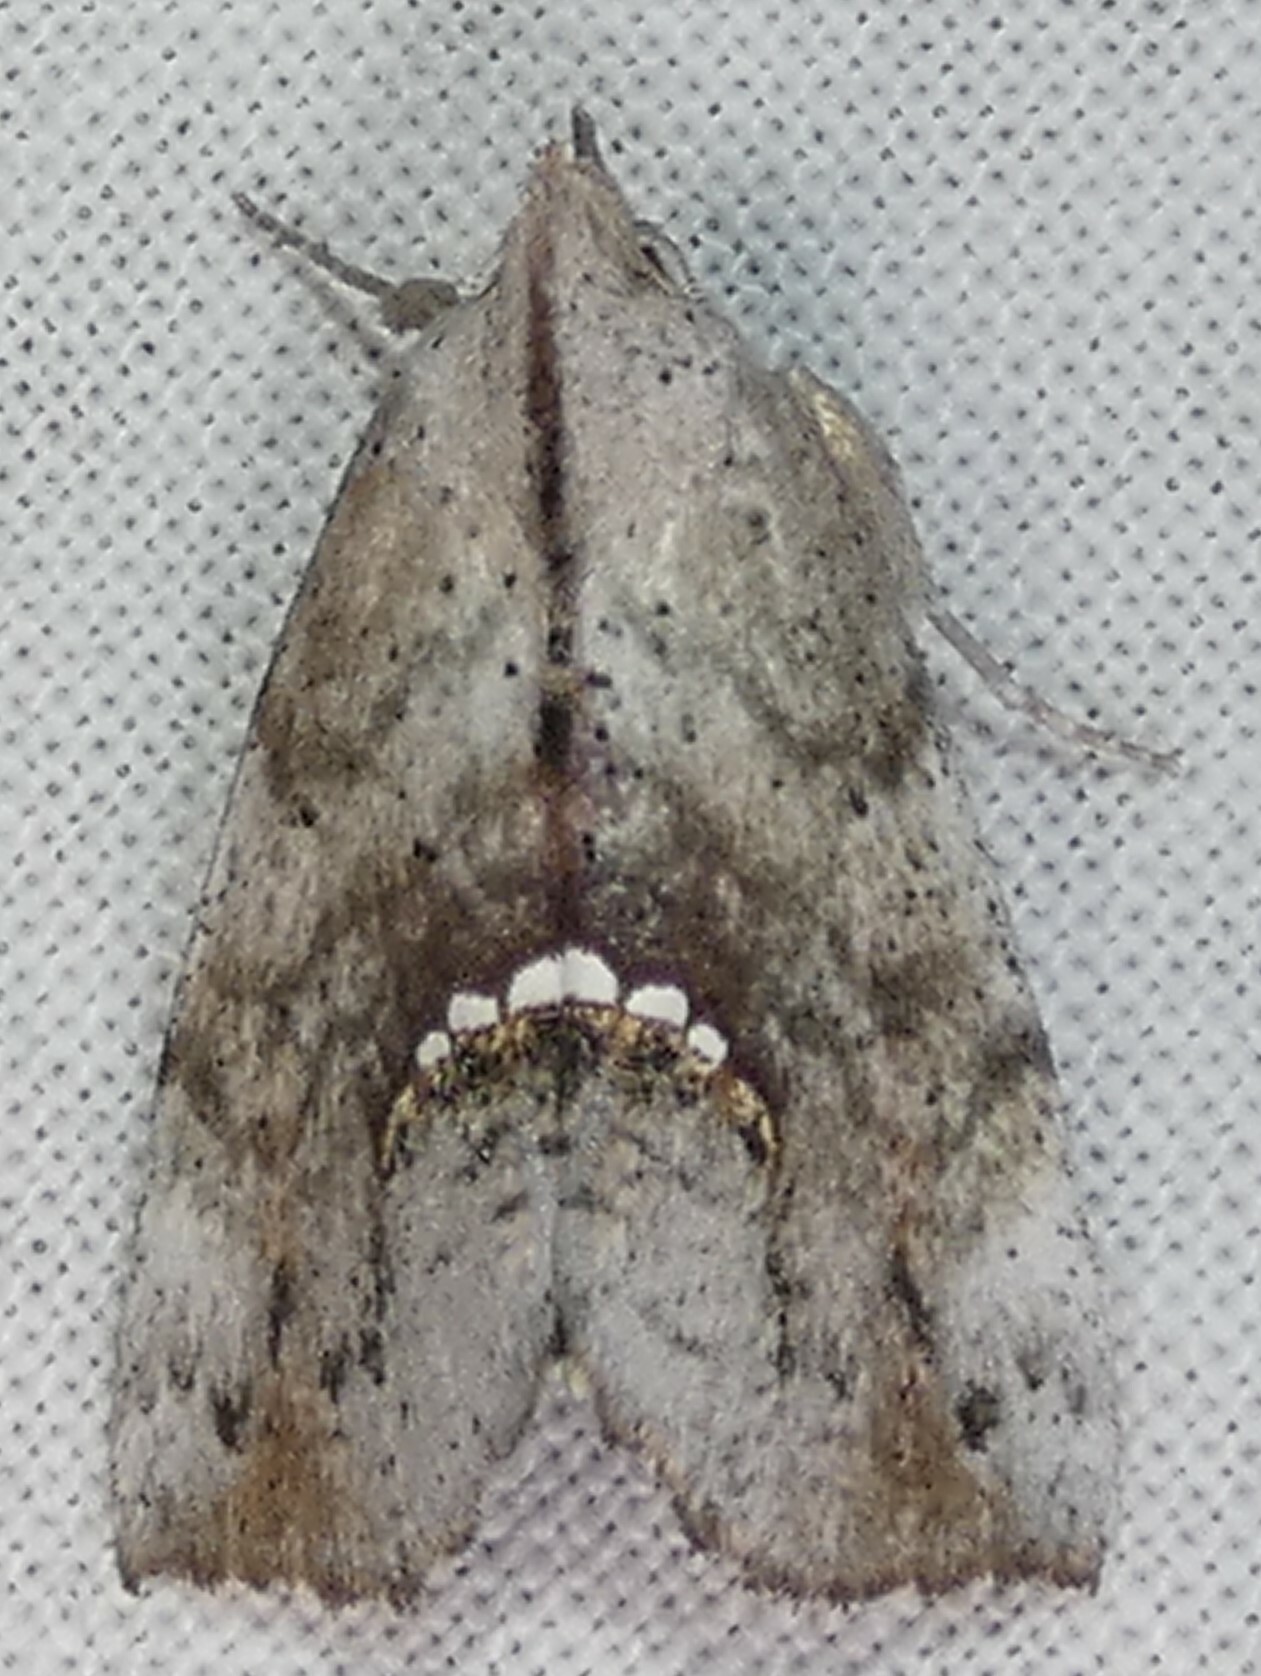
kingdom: Animalia
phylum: Arthropoda
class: Insecta
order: Lepidoptera
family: Erebidae
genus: Hypsoropha
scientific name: Hypsoropha hormos
